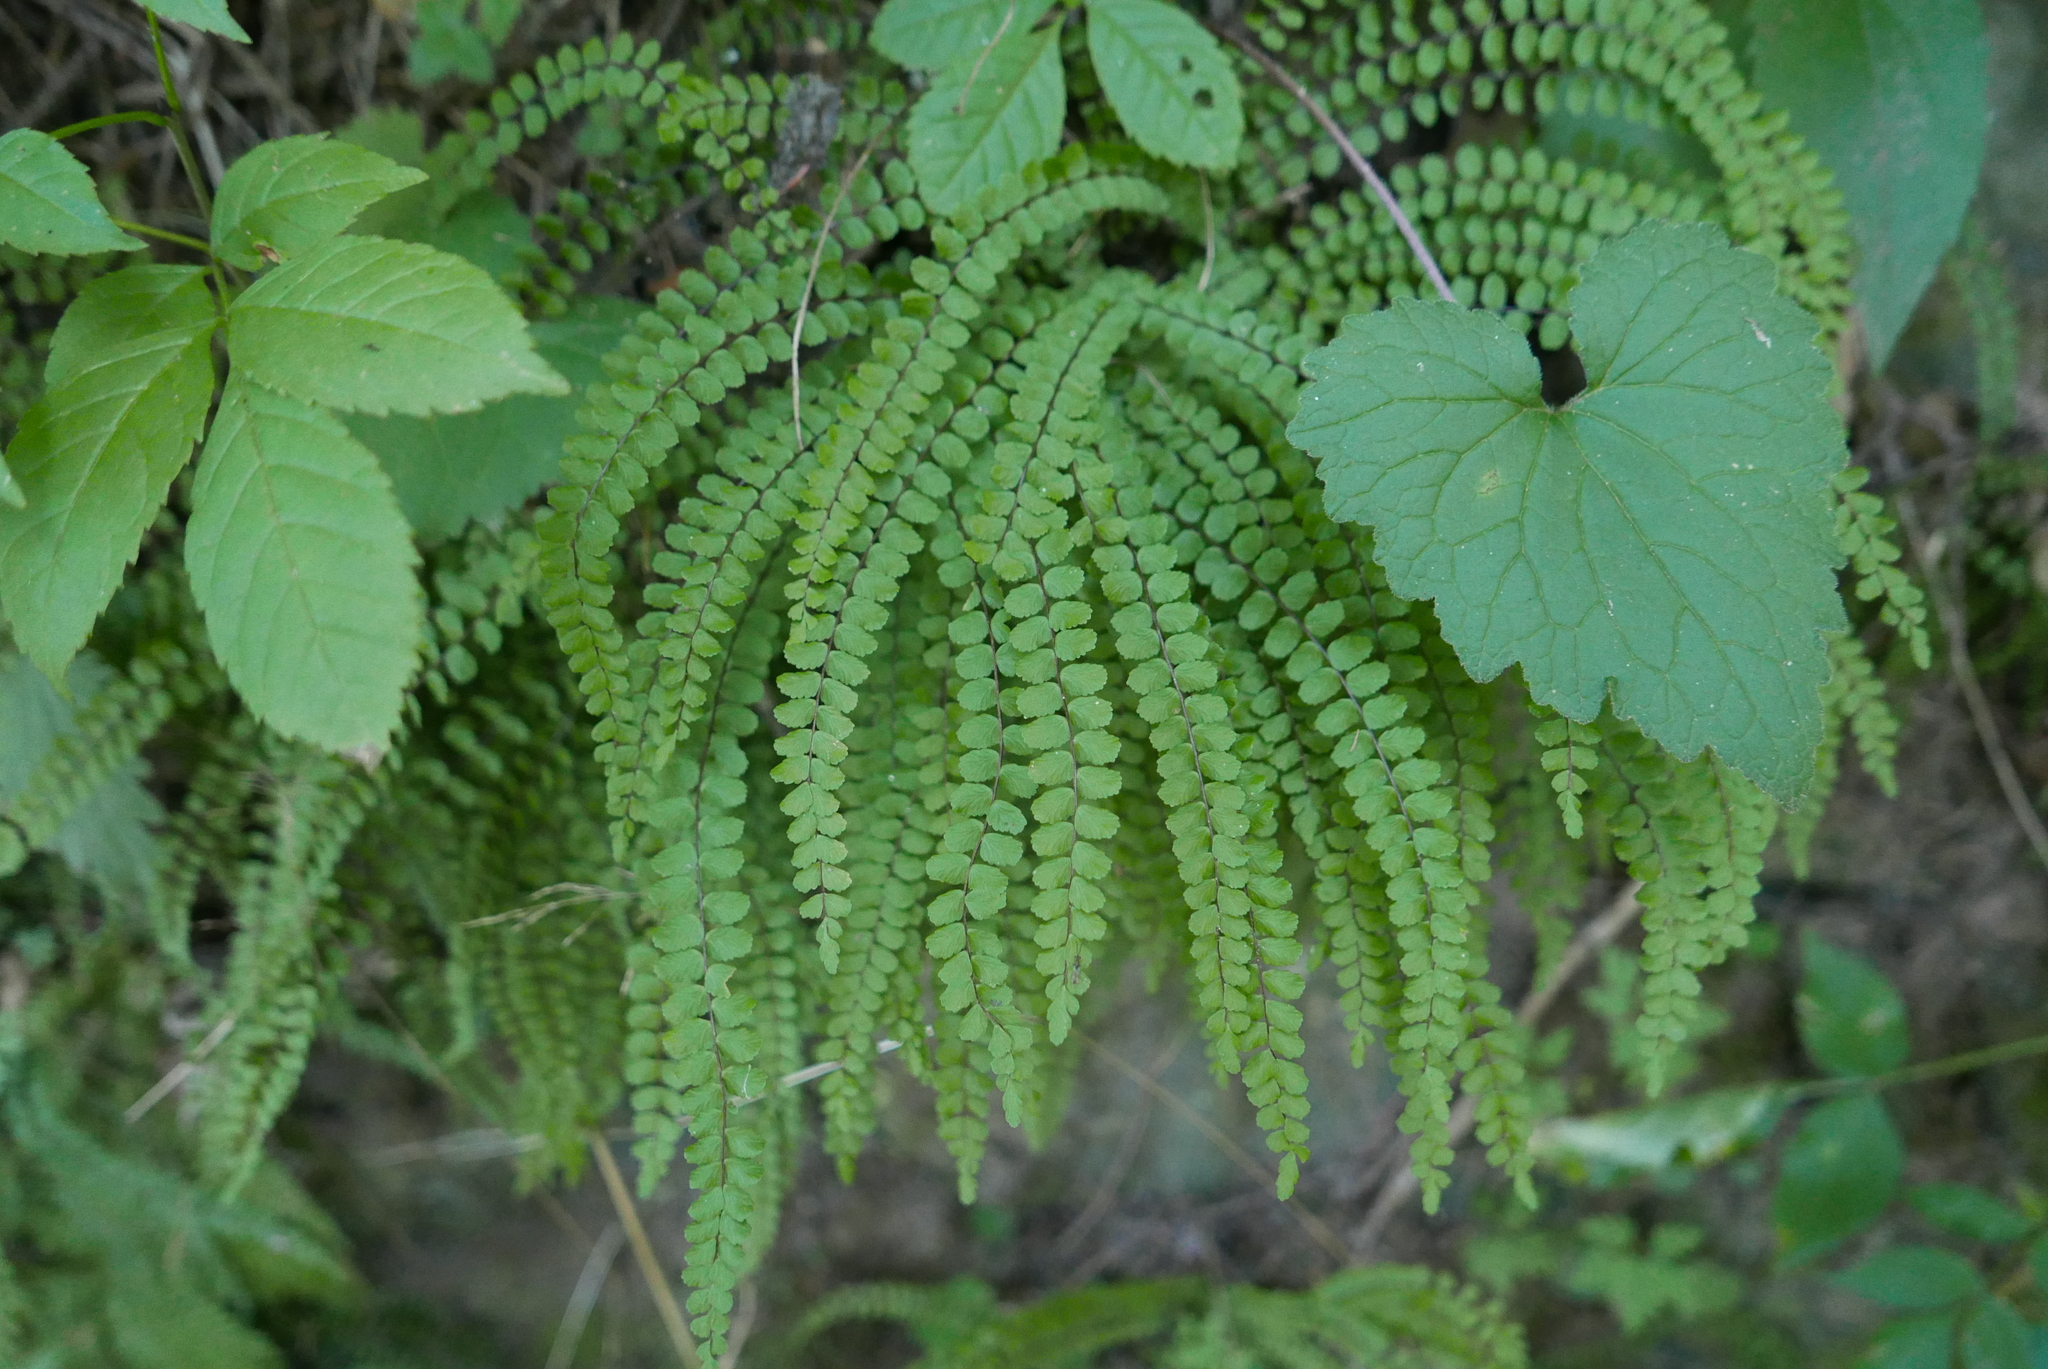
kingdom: Plantae
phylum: Tracheophyta
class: Polypodiopsida
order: Polypodiales
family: Aspleniaceae
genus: Asplenium
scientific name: Asplenium trichomanes
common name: Maidenhair spleenwort
